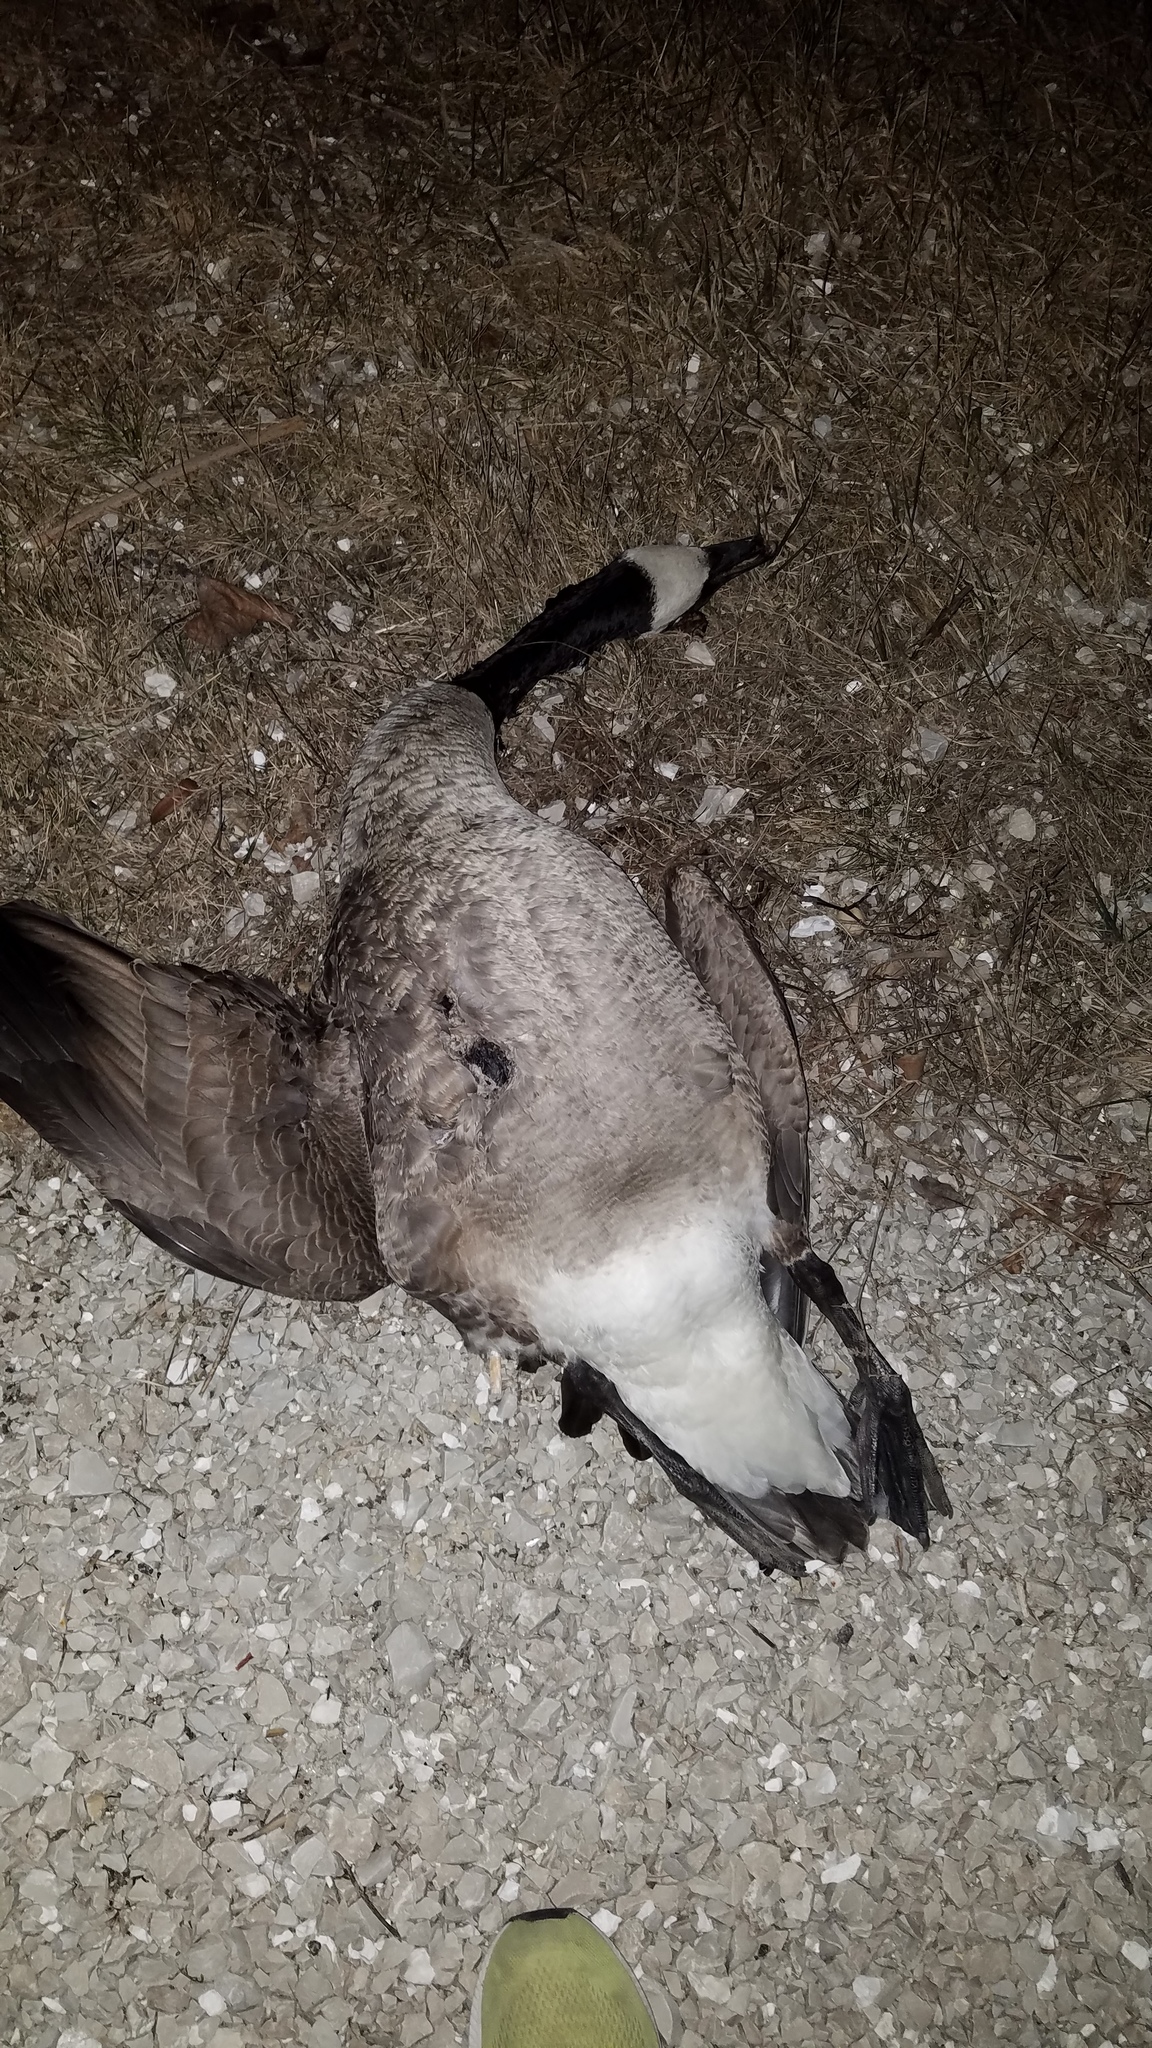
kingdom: Animalia
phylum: Chordata
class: Aves
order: Anseriformes
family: Anatidae
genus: Branta
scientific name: Branta canadensis
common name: Canada goose
